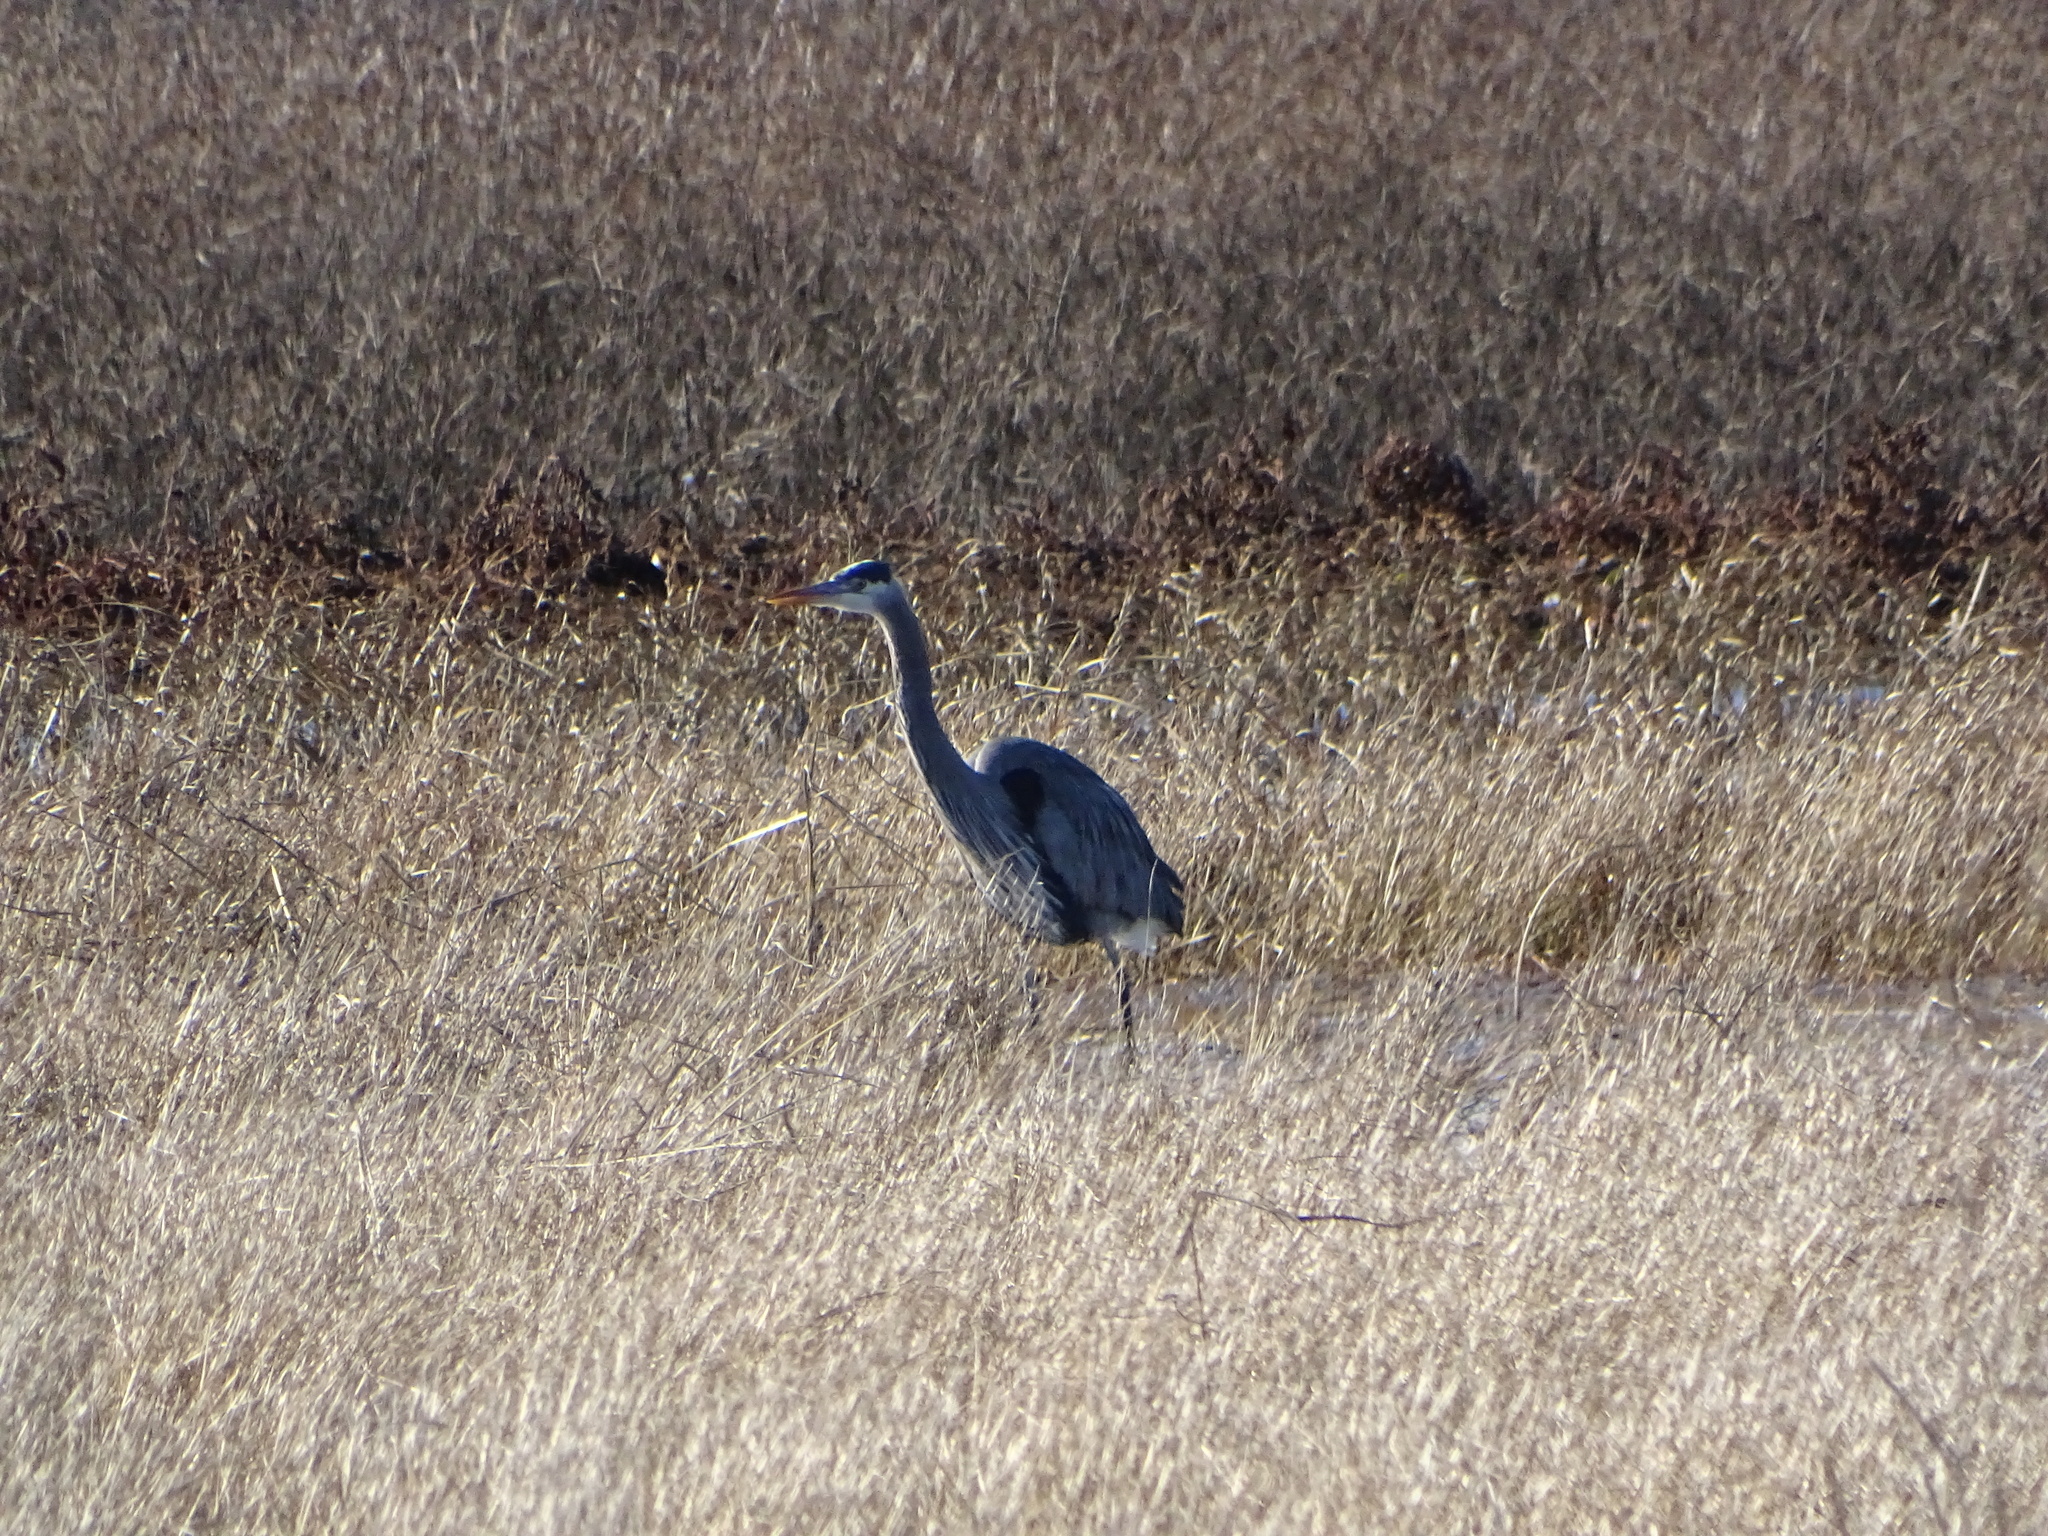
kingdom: Animalia
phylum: Chordata
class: Aves
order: Pelecaniformes
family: Ardeidae
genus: Ardea
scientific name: Ardea herodias
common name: Great blue heron
